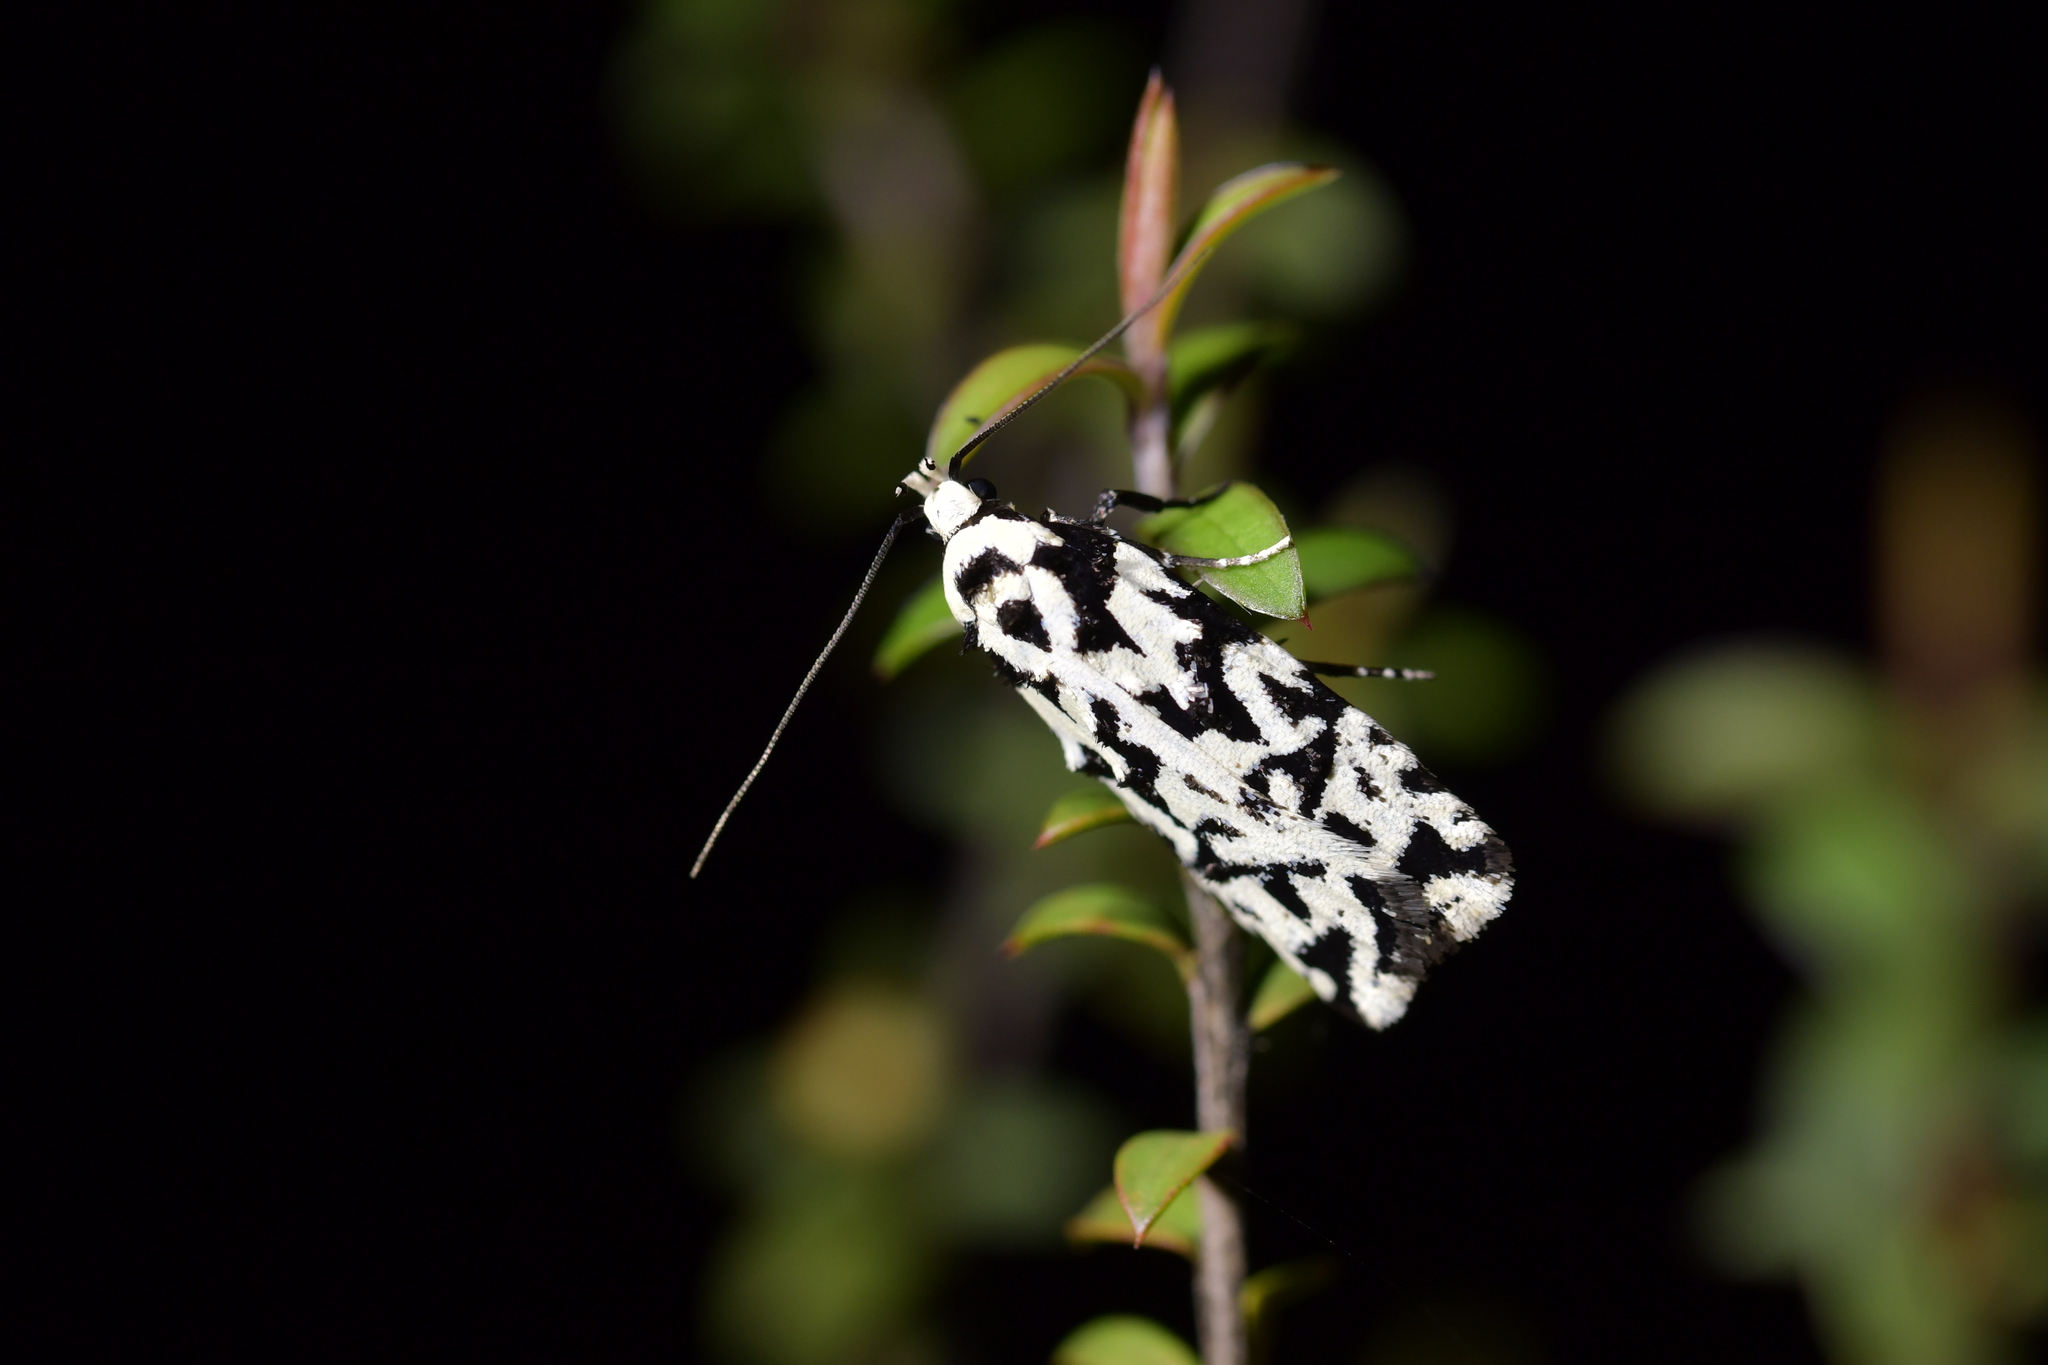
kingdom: Animalia
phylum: Arthropoda
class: Insecta
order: Lepidoptera
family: Oecophoridae
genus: Izatha
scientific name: Izatha
